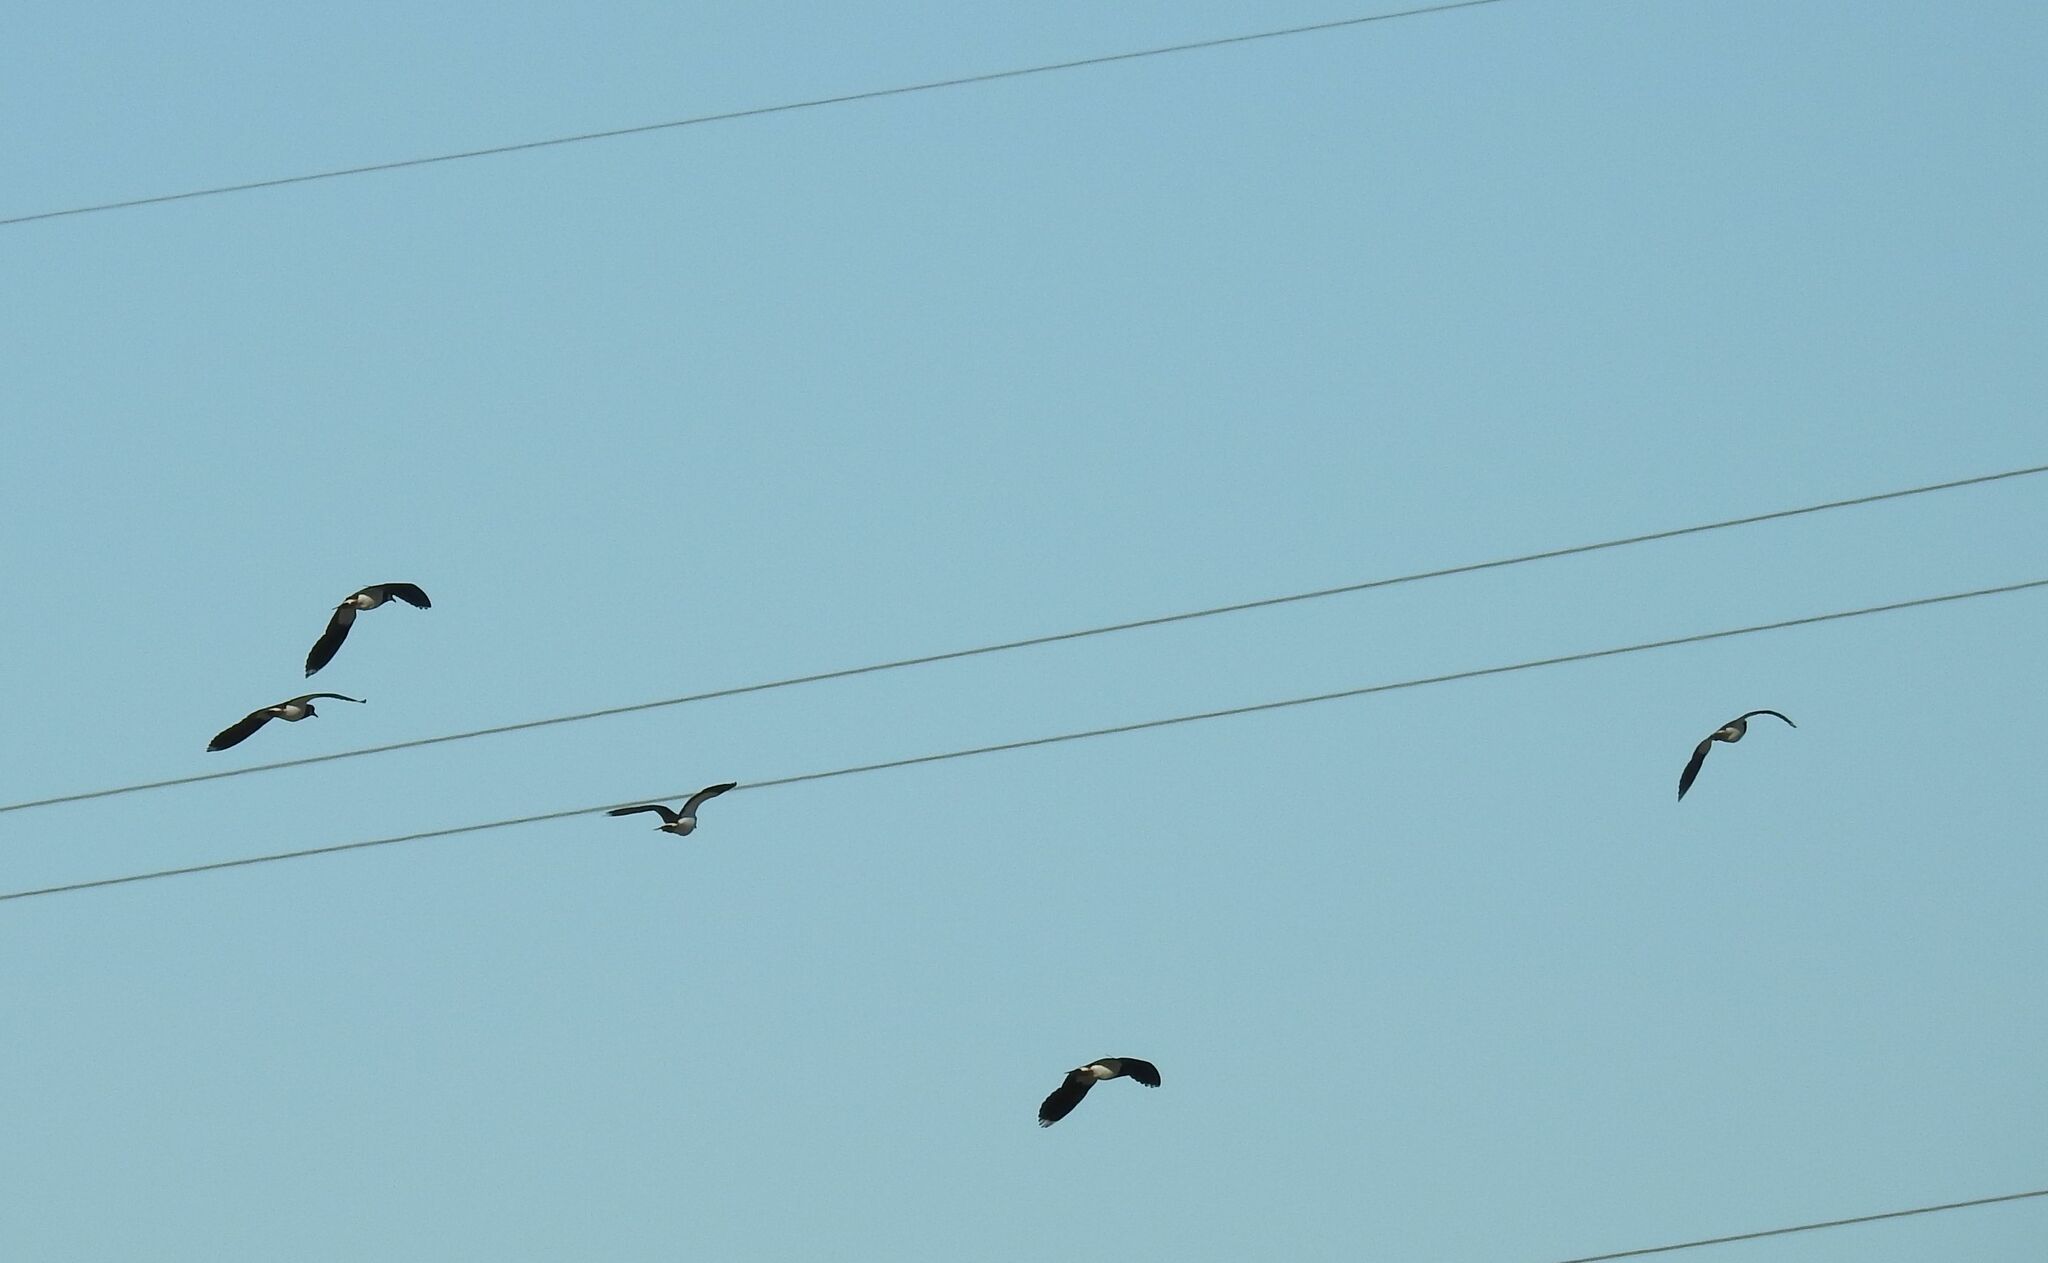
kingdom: Animalia
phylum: Chordata
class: Aves
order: Charadriiformes
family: Charadriidae
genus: Vanellus
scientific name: Vanellus vanellus
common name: Northern lapwing
